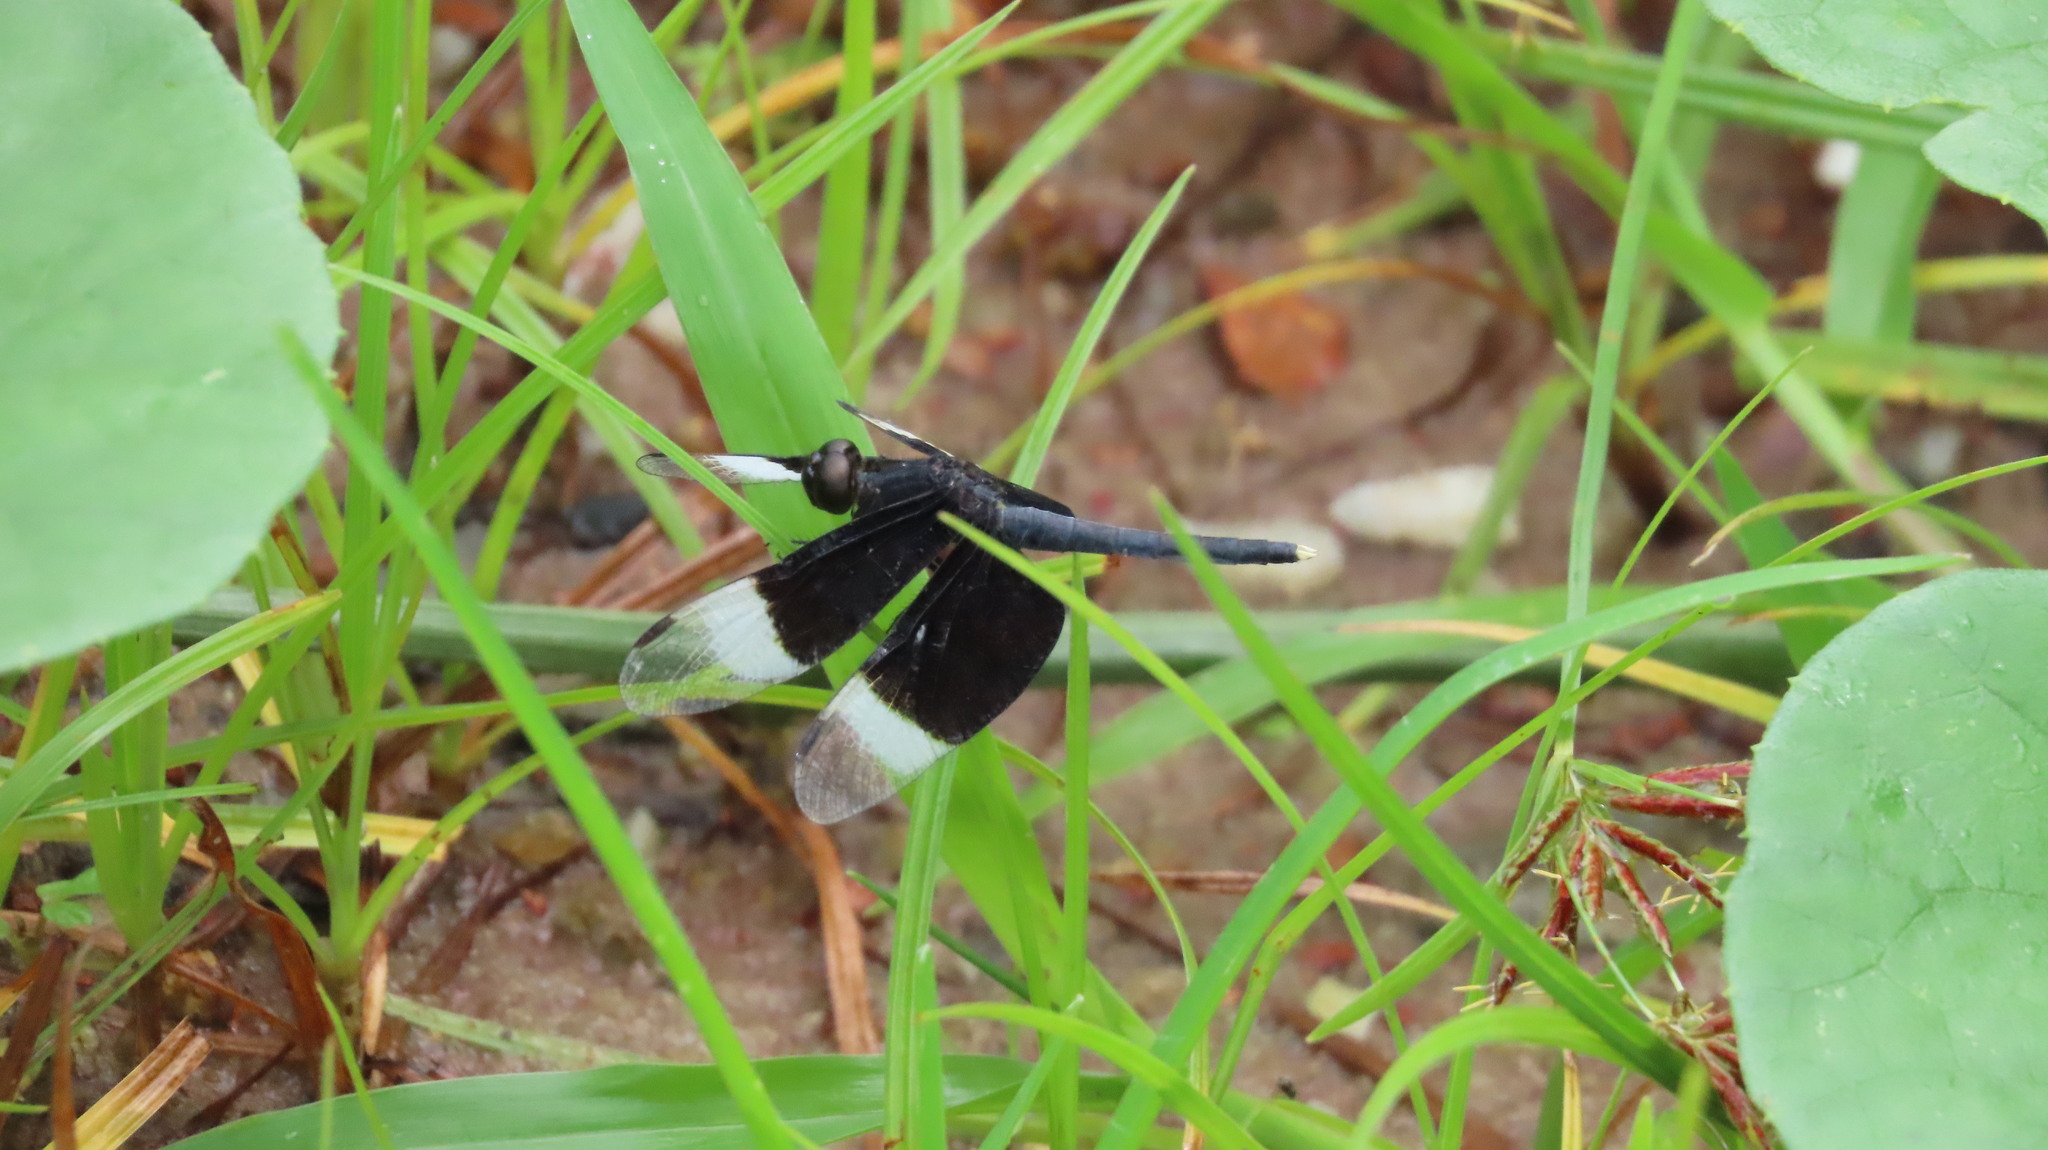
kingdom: Animalia
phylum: Arthropoda
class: Insecta
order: Odonata
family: Libellulidae
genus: Neurothemis
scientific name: Neurothemis tullia
